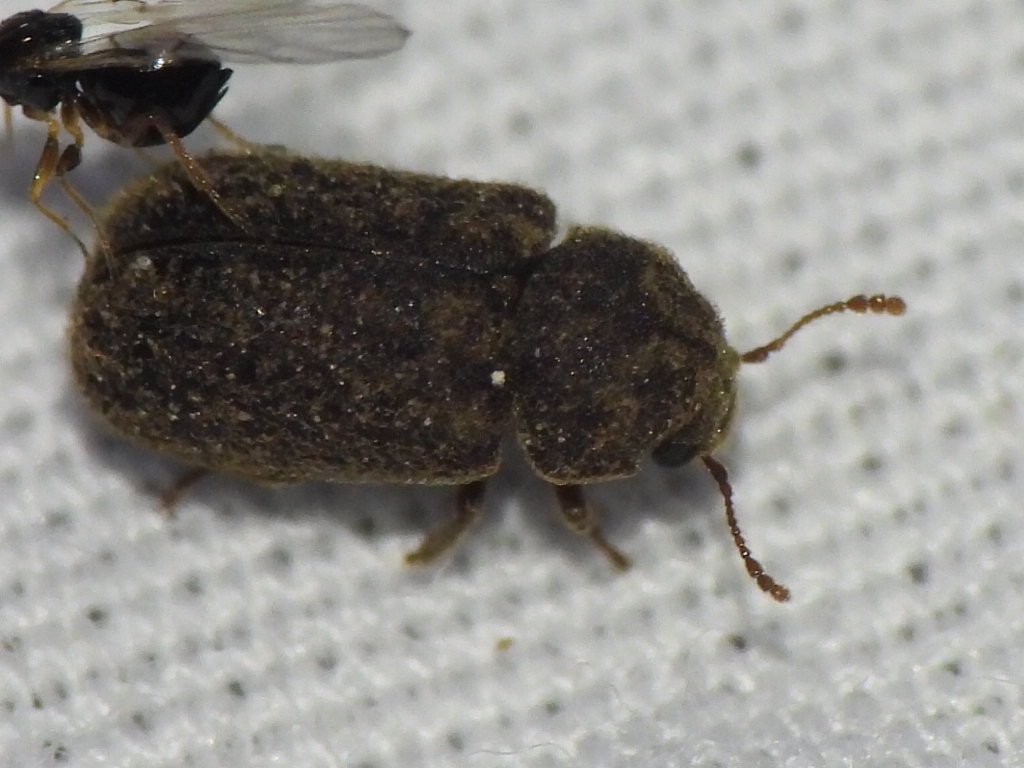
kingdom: Animalia
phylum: Arthropoda
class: Insecta
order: Coleoptera
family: Bostrichidae
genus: Endecatomus
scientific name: Endecatomus rugosus
